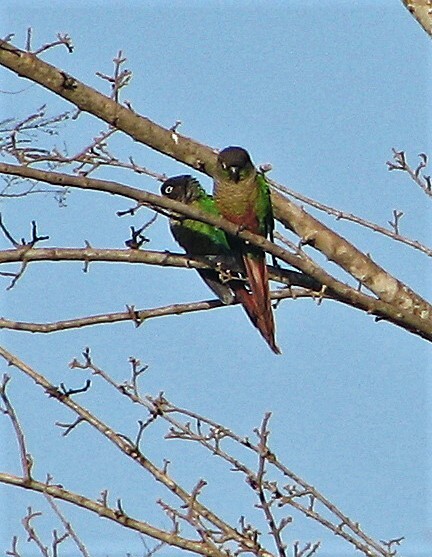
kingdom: Animalia
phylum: Chordata
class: Aves
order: Psittaciformes
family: Psittacidae
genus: Pyrrhura
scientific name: Pyrrhura molinae
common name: Green-cheeked parakeet
